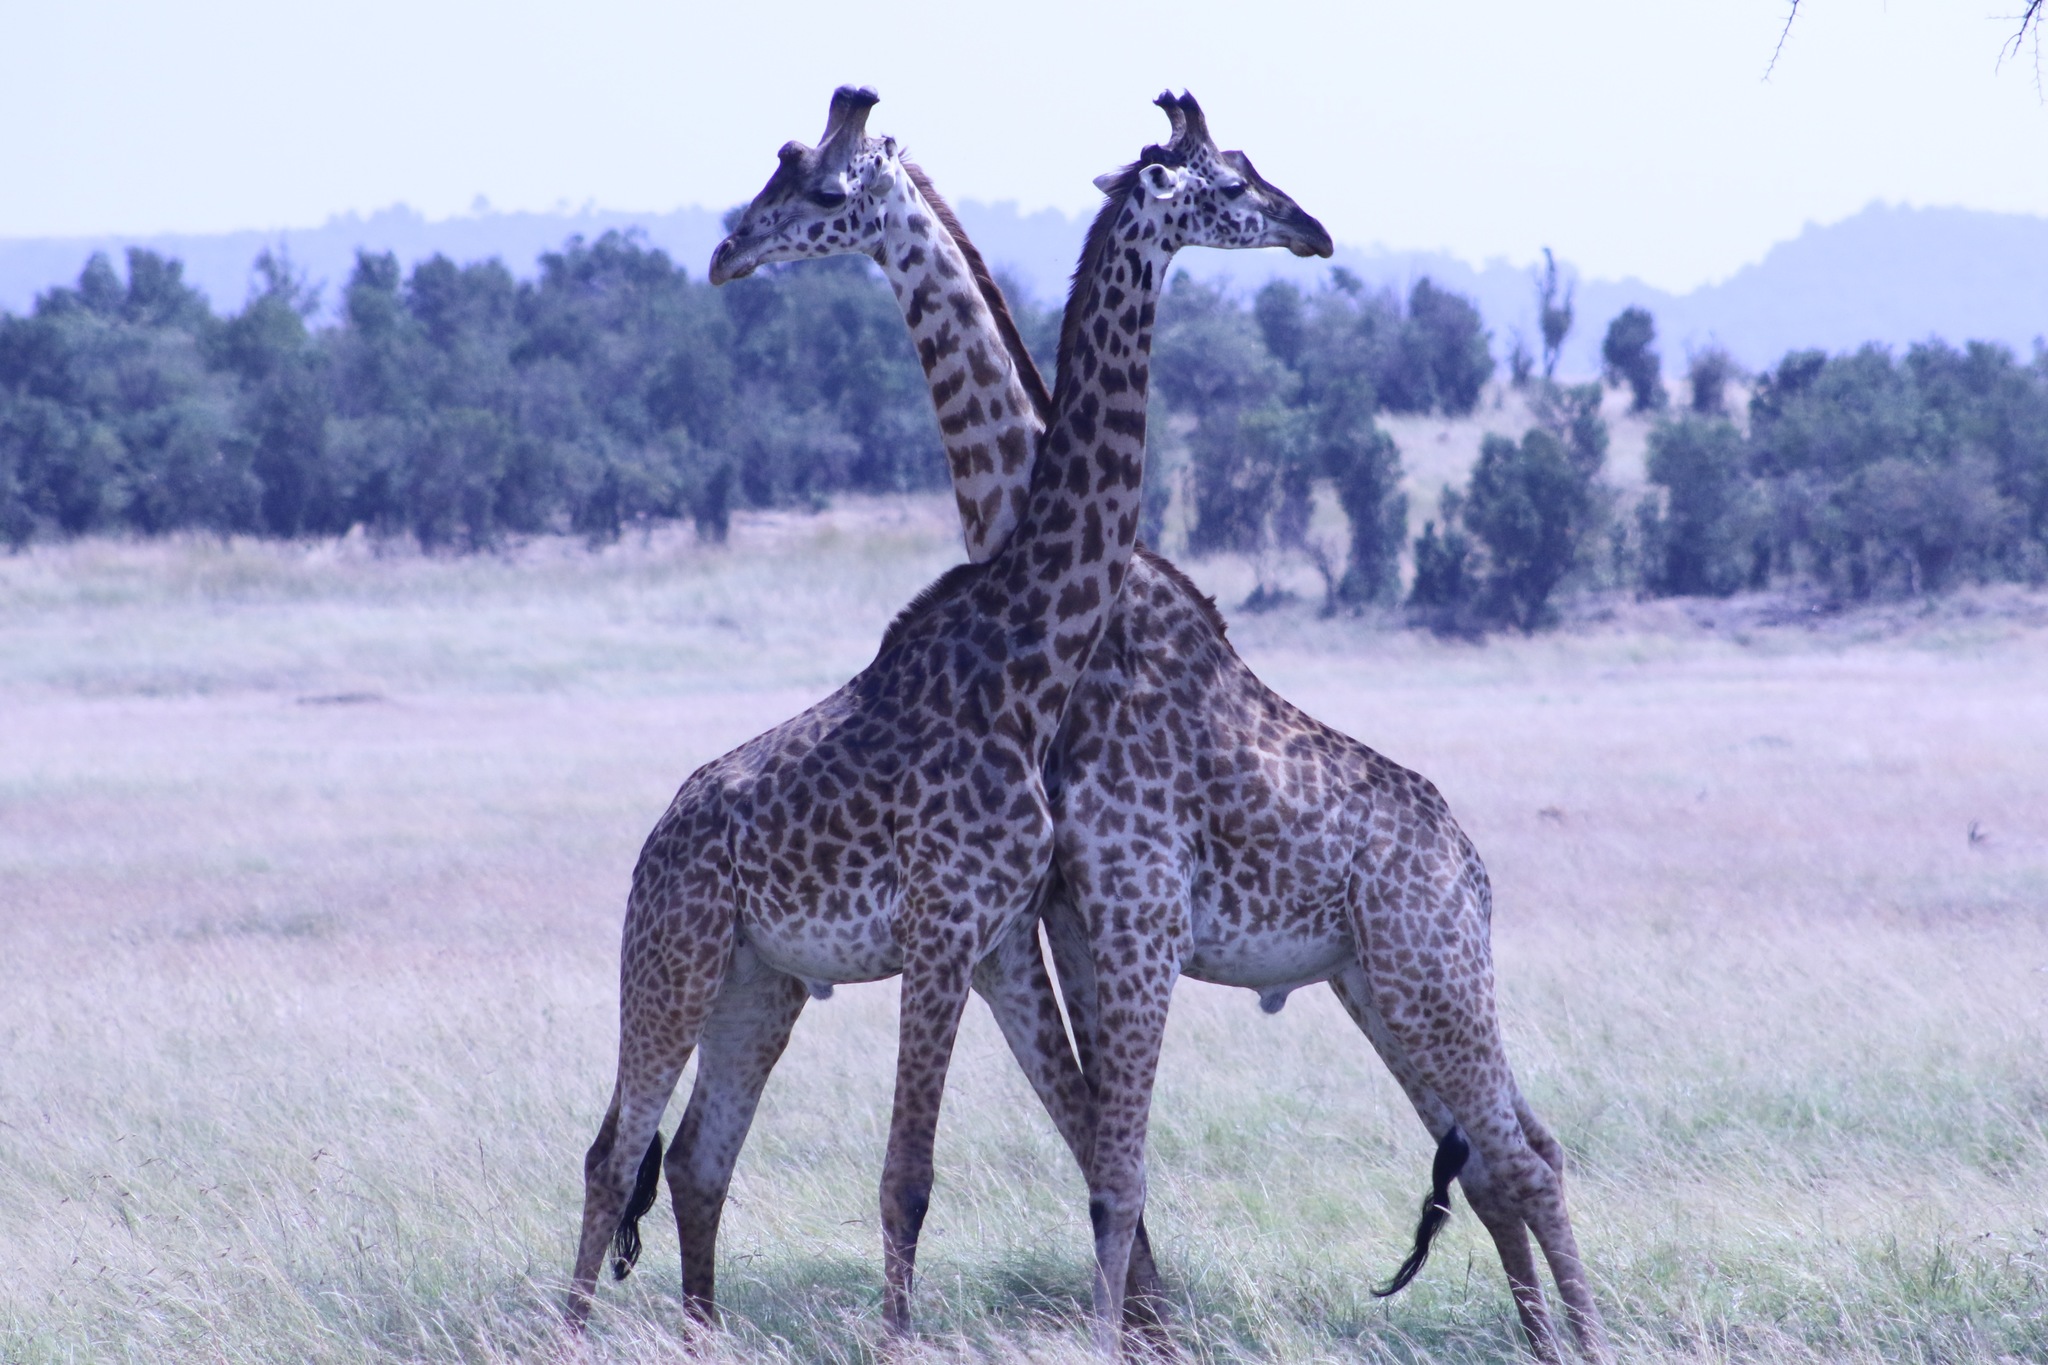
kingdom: Animalia
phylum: Chordata
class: Mammalia
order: Artiodactyla
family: Giraffidae
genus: Giraffa
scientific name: Giraffa tippelskirchi
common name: Masai giraffe
